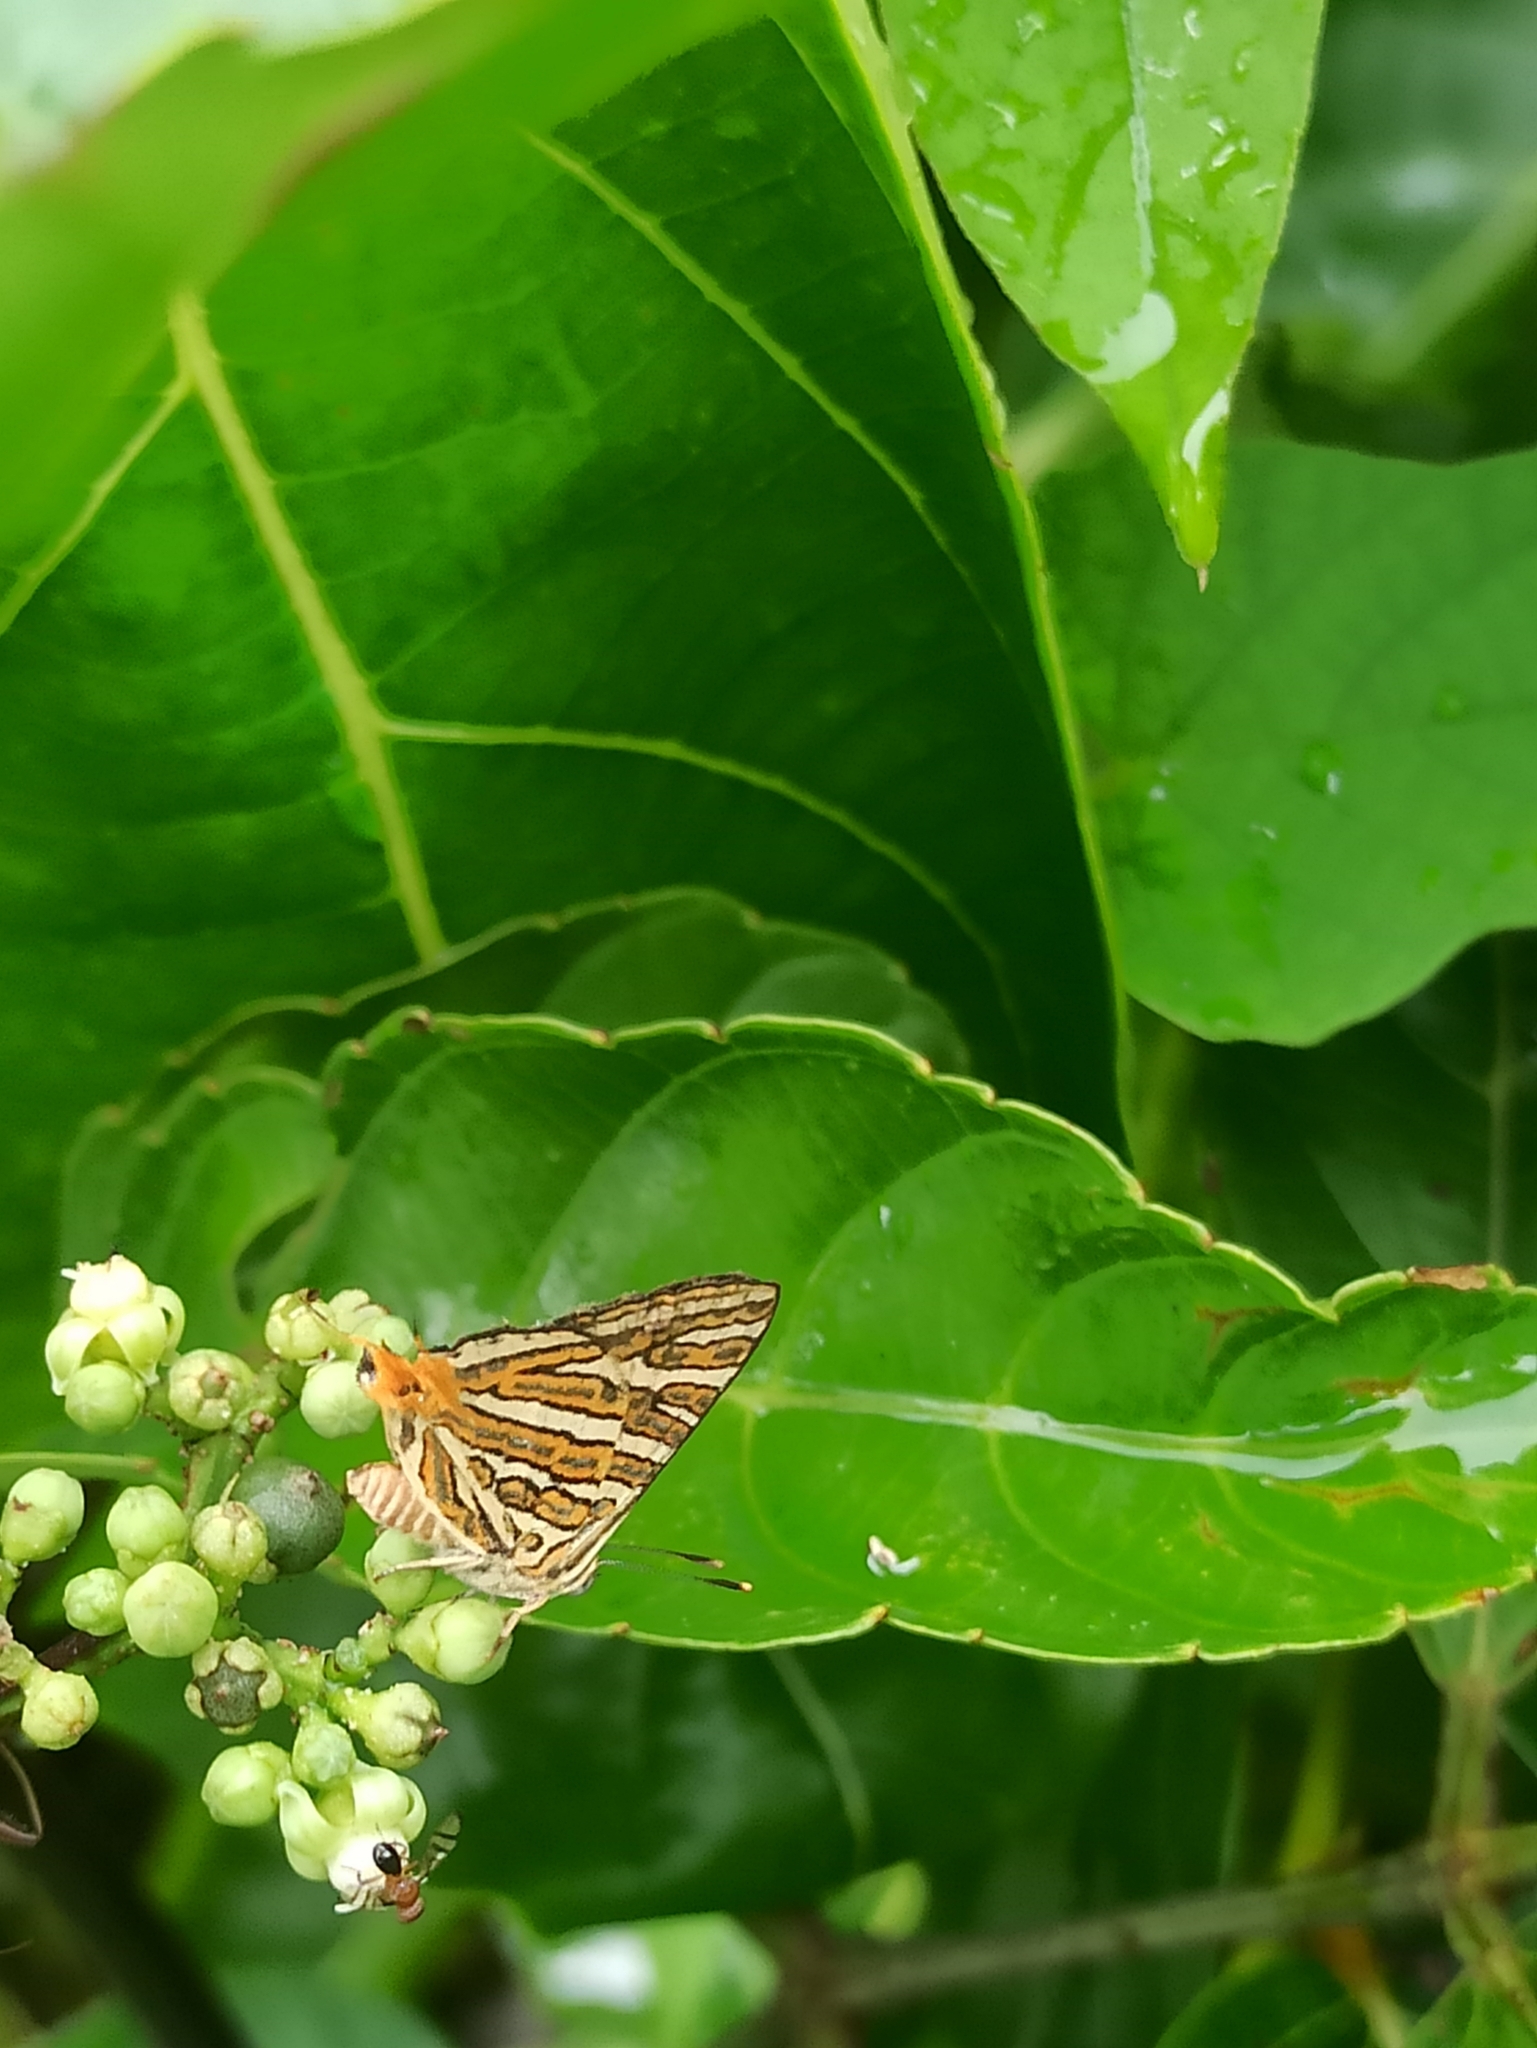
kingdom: Animalia
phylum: Arthropoda
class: Insecta
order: Lepidoptera
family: Lycaenidae
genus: Cigaritis
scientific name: Cigaritis vulcanus
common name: Common silverline
